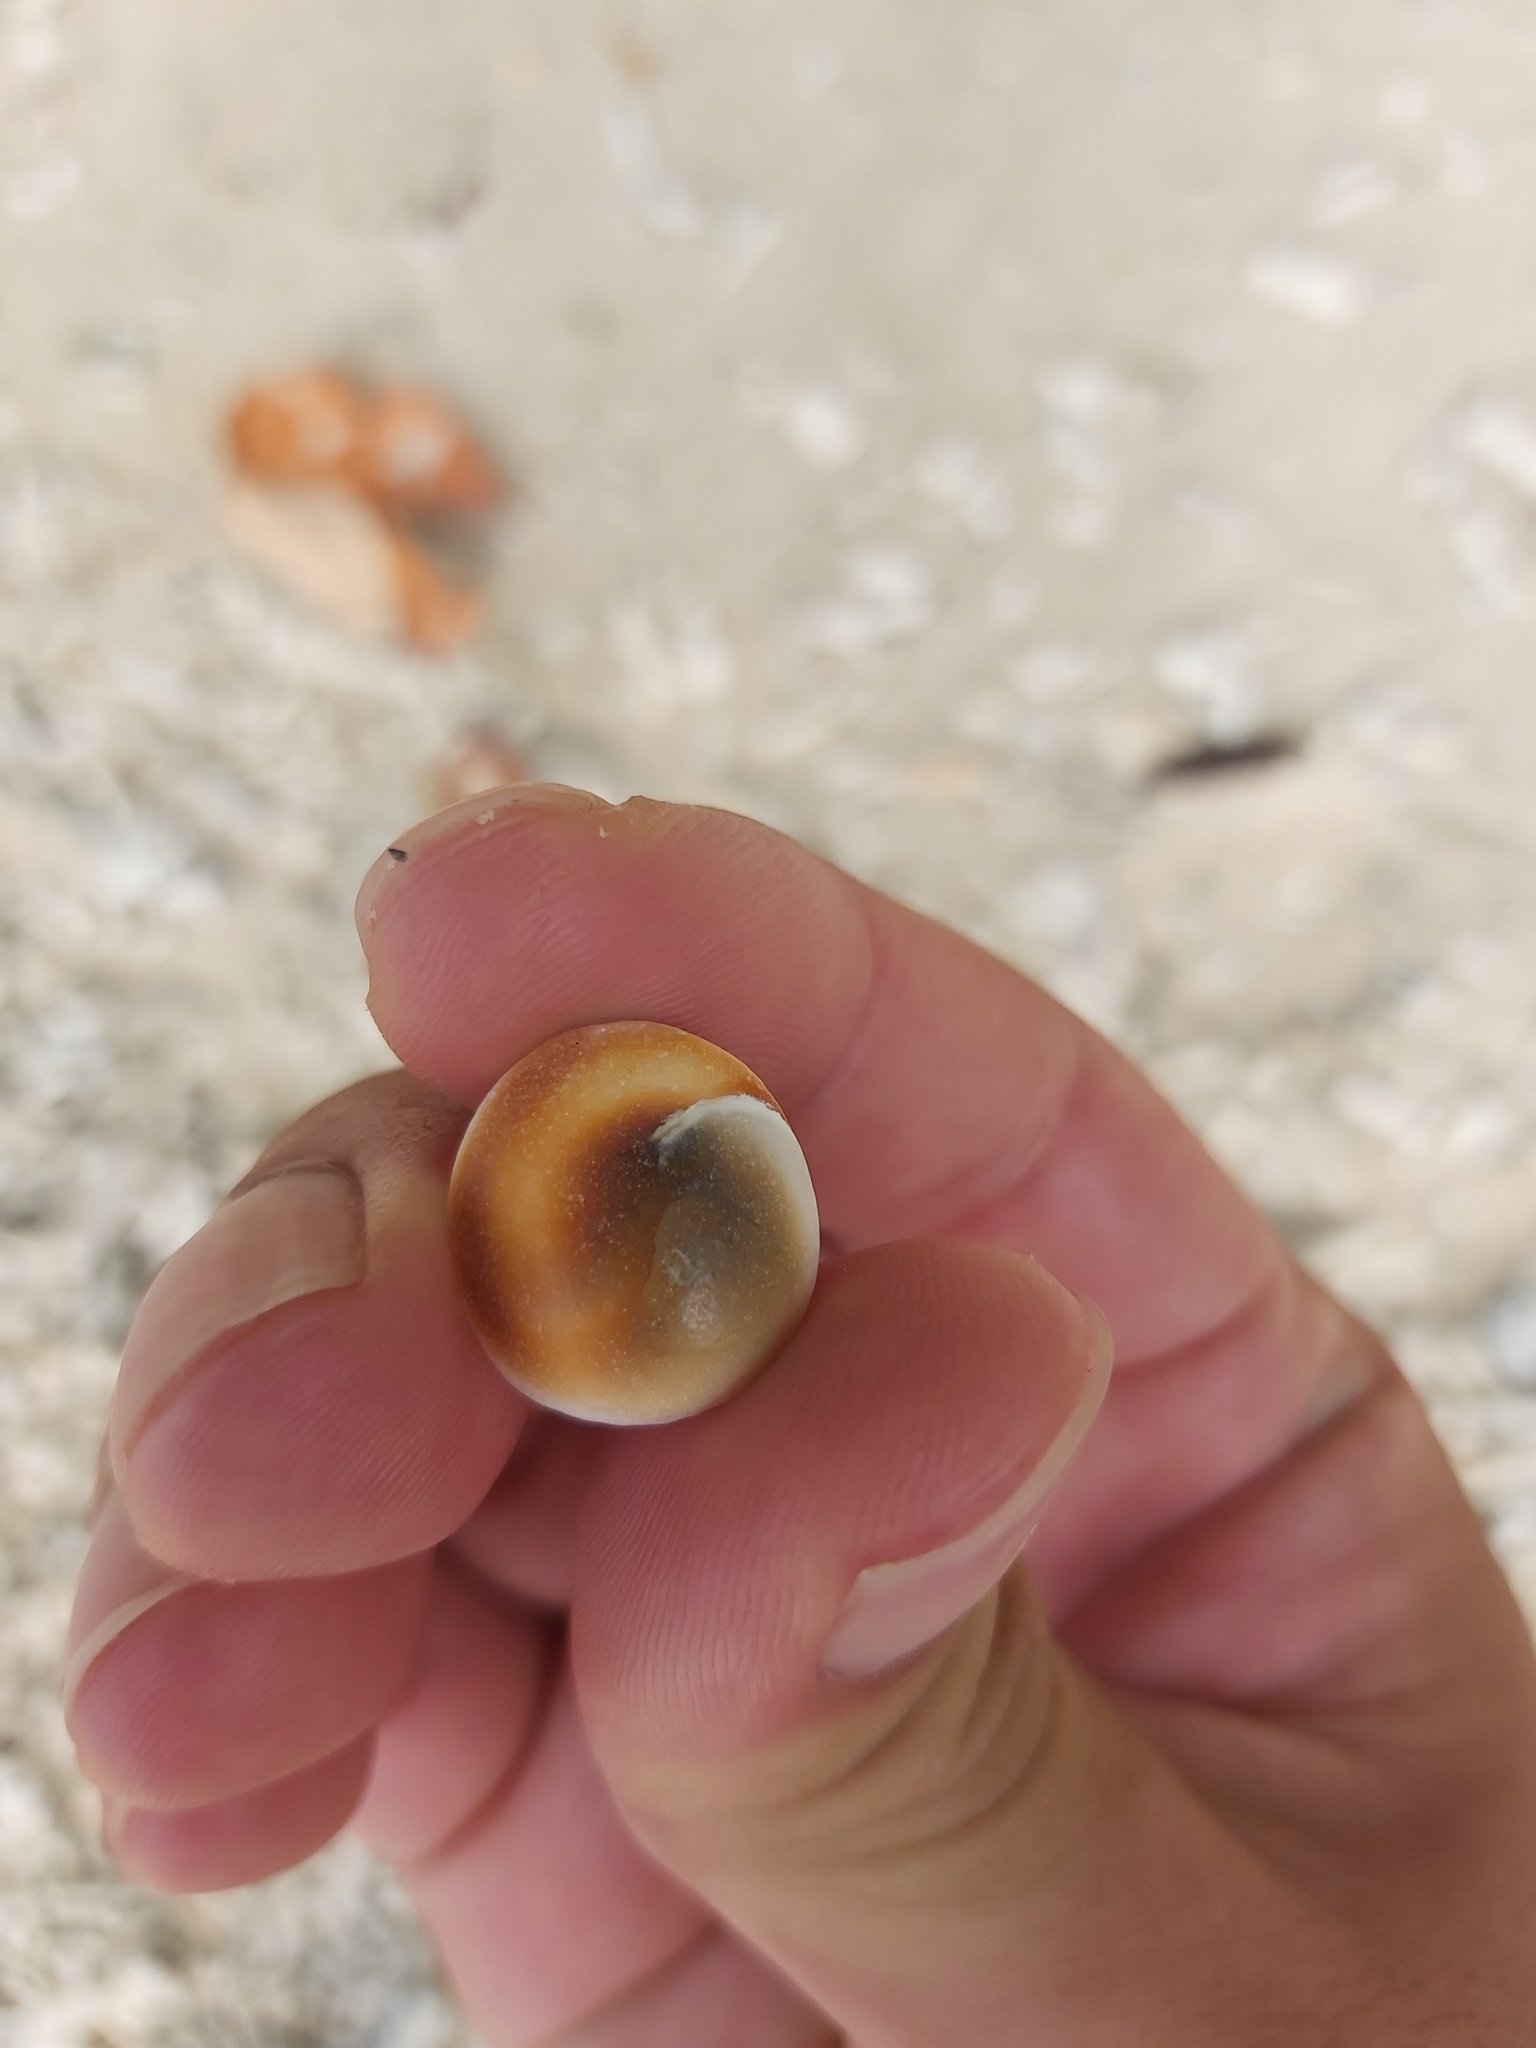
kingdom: Animalia
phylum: Mollusca
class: Gastropoda
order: Trochida
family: Turbinidae
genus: Turbo
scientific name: Turbo petholatus
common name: Cat's-eye shell
